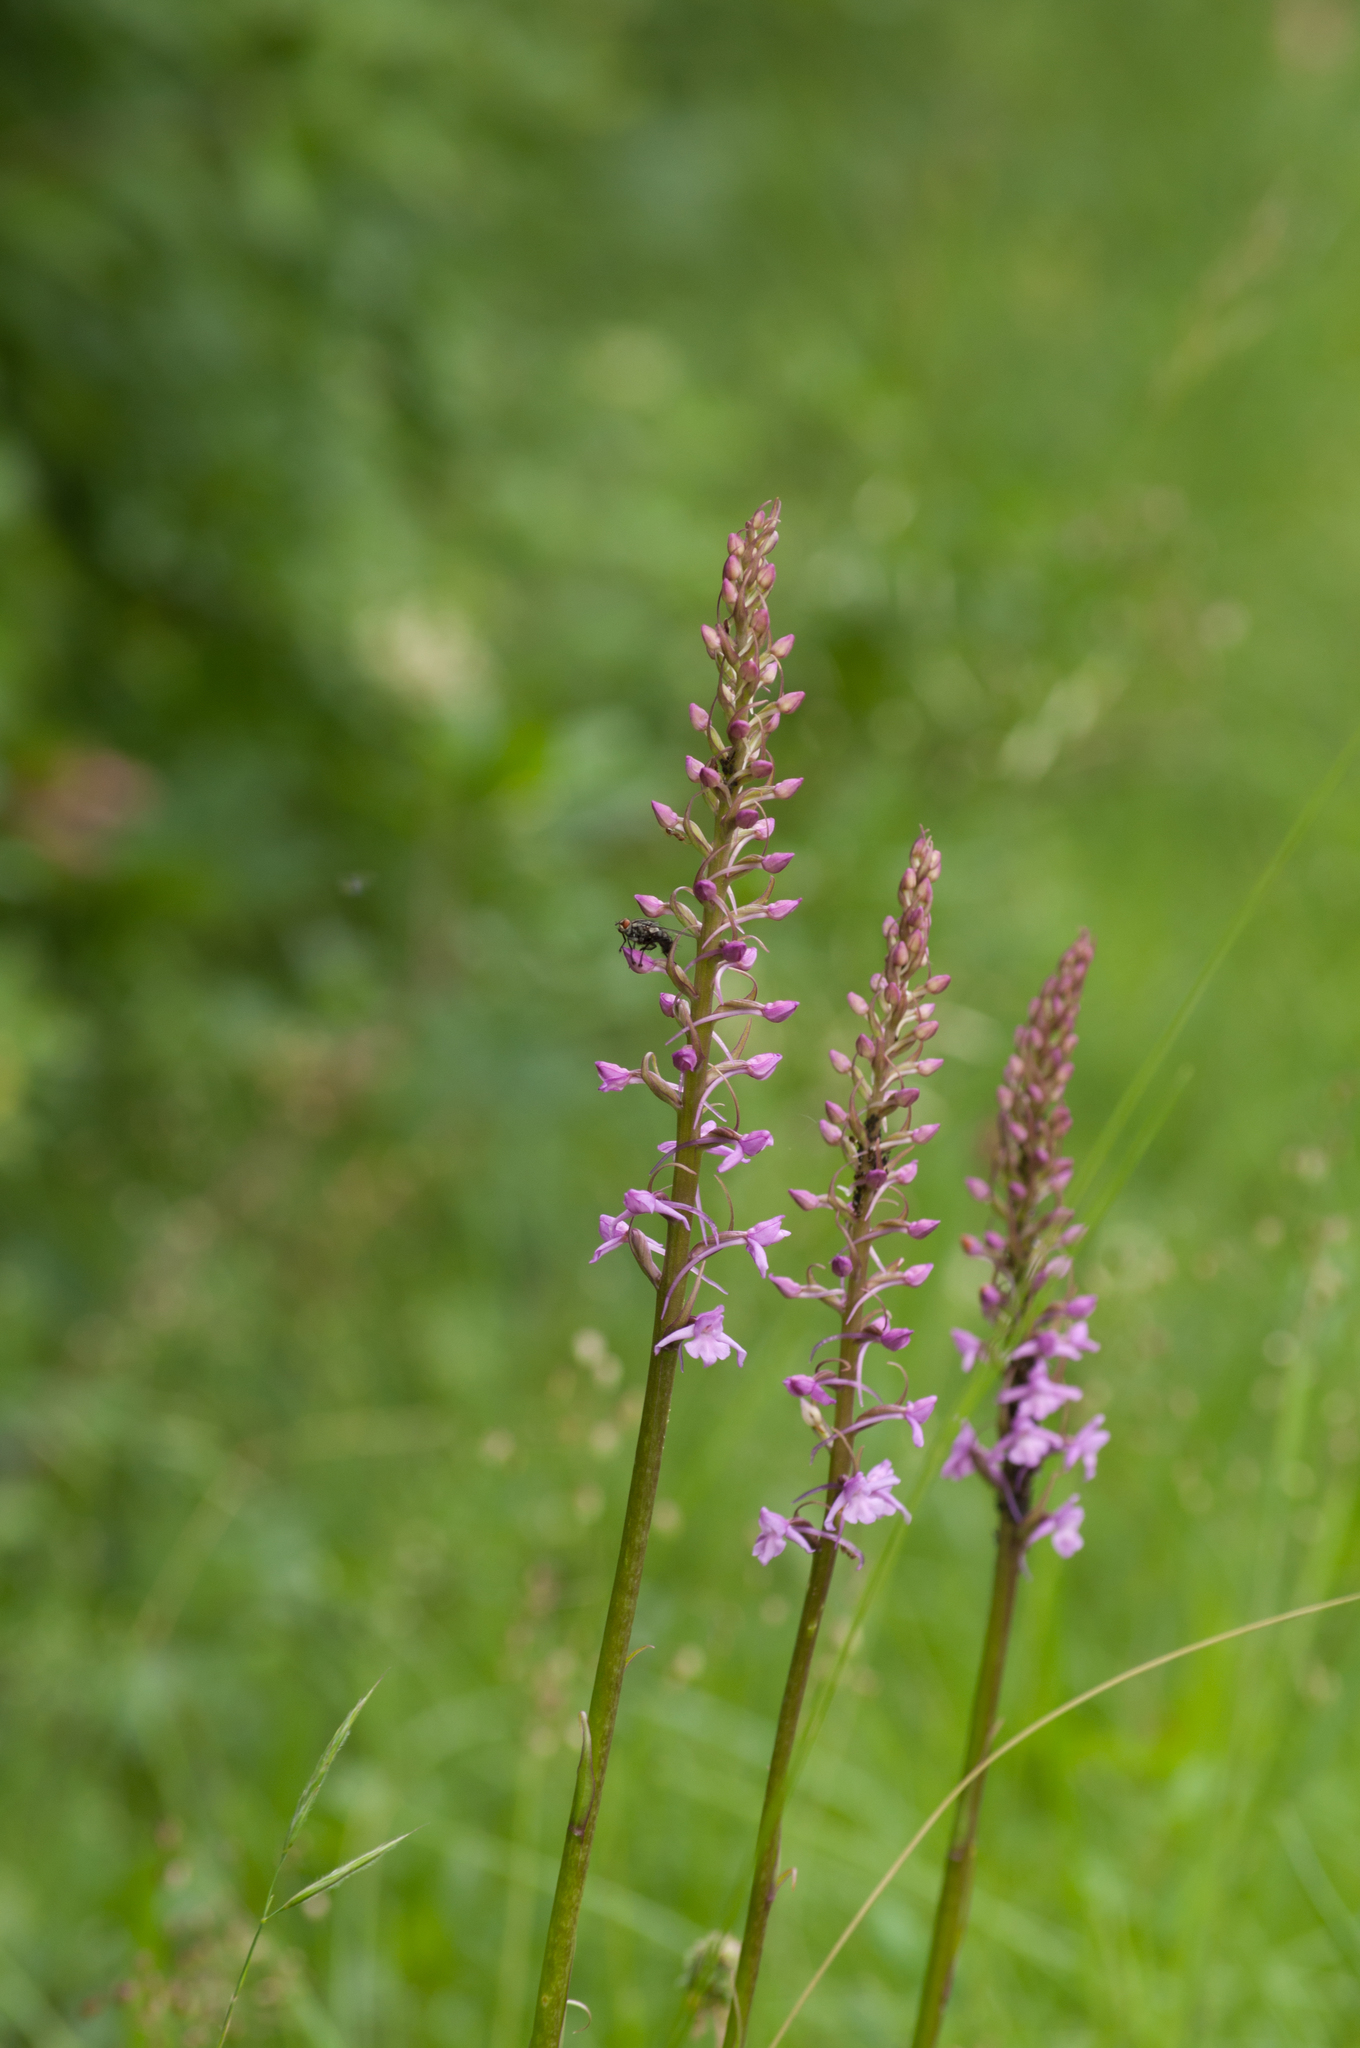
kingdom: Plantae
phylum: Tracheophyta
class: Liliopsida
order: Asparagales
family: Orchidaceae
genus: Gymnadenia
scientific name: Gymnadenia conopsea
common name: Fragrant orchid
